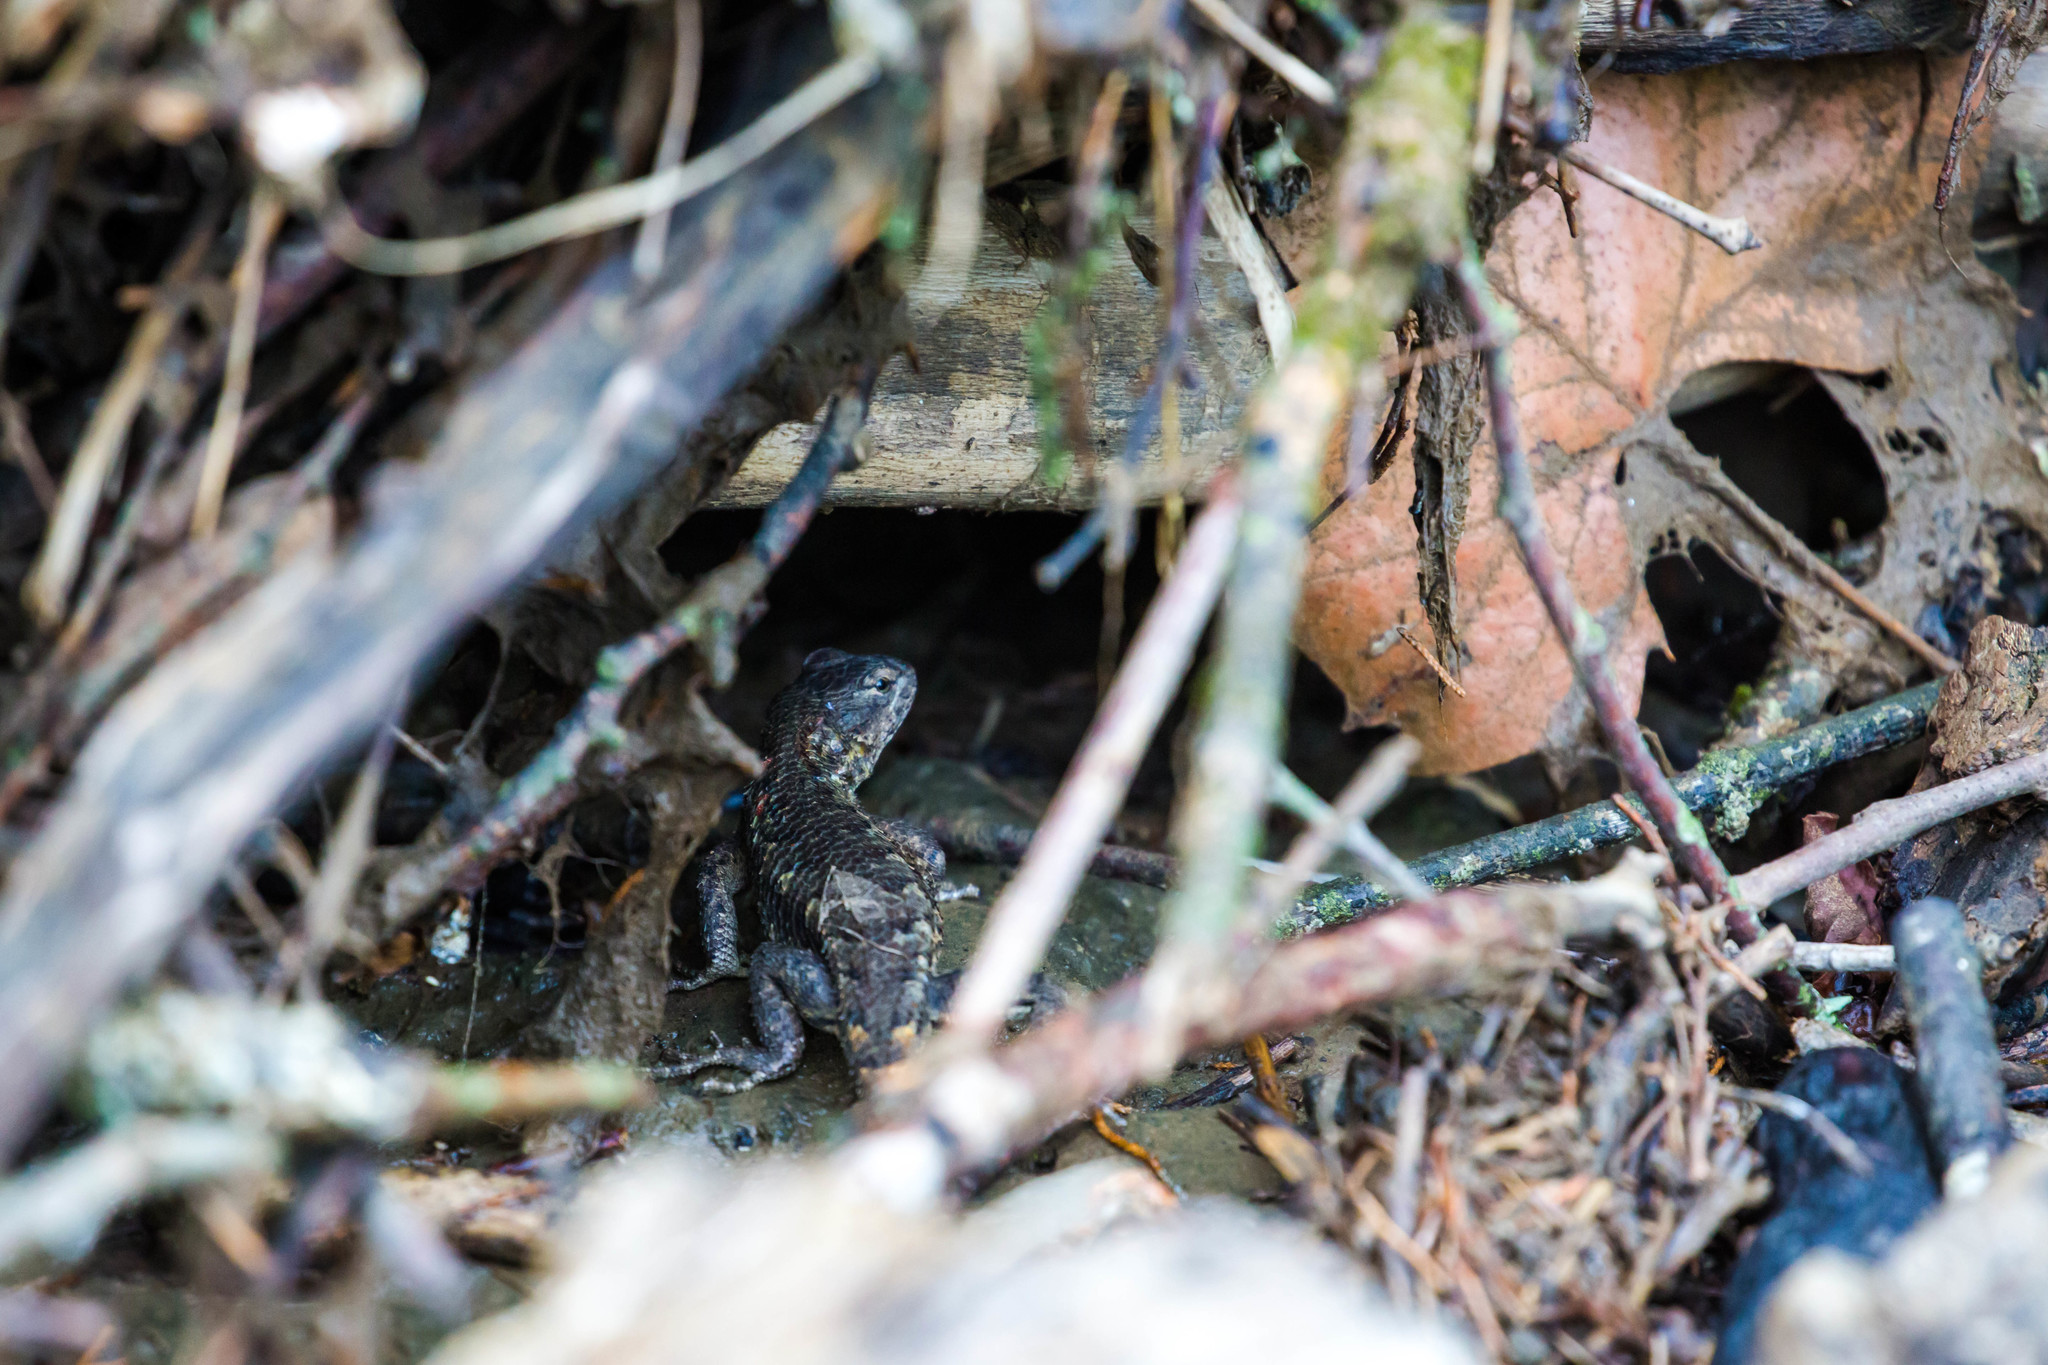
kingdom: Animalia
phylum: Chordata
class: Squamata
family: Phrynosomatidae
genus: Sceloporus
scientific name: Sceloporus undulatus
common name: Eastern fence lizard
